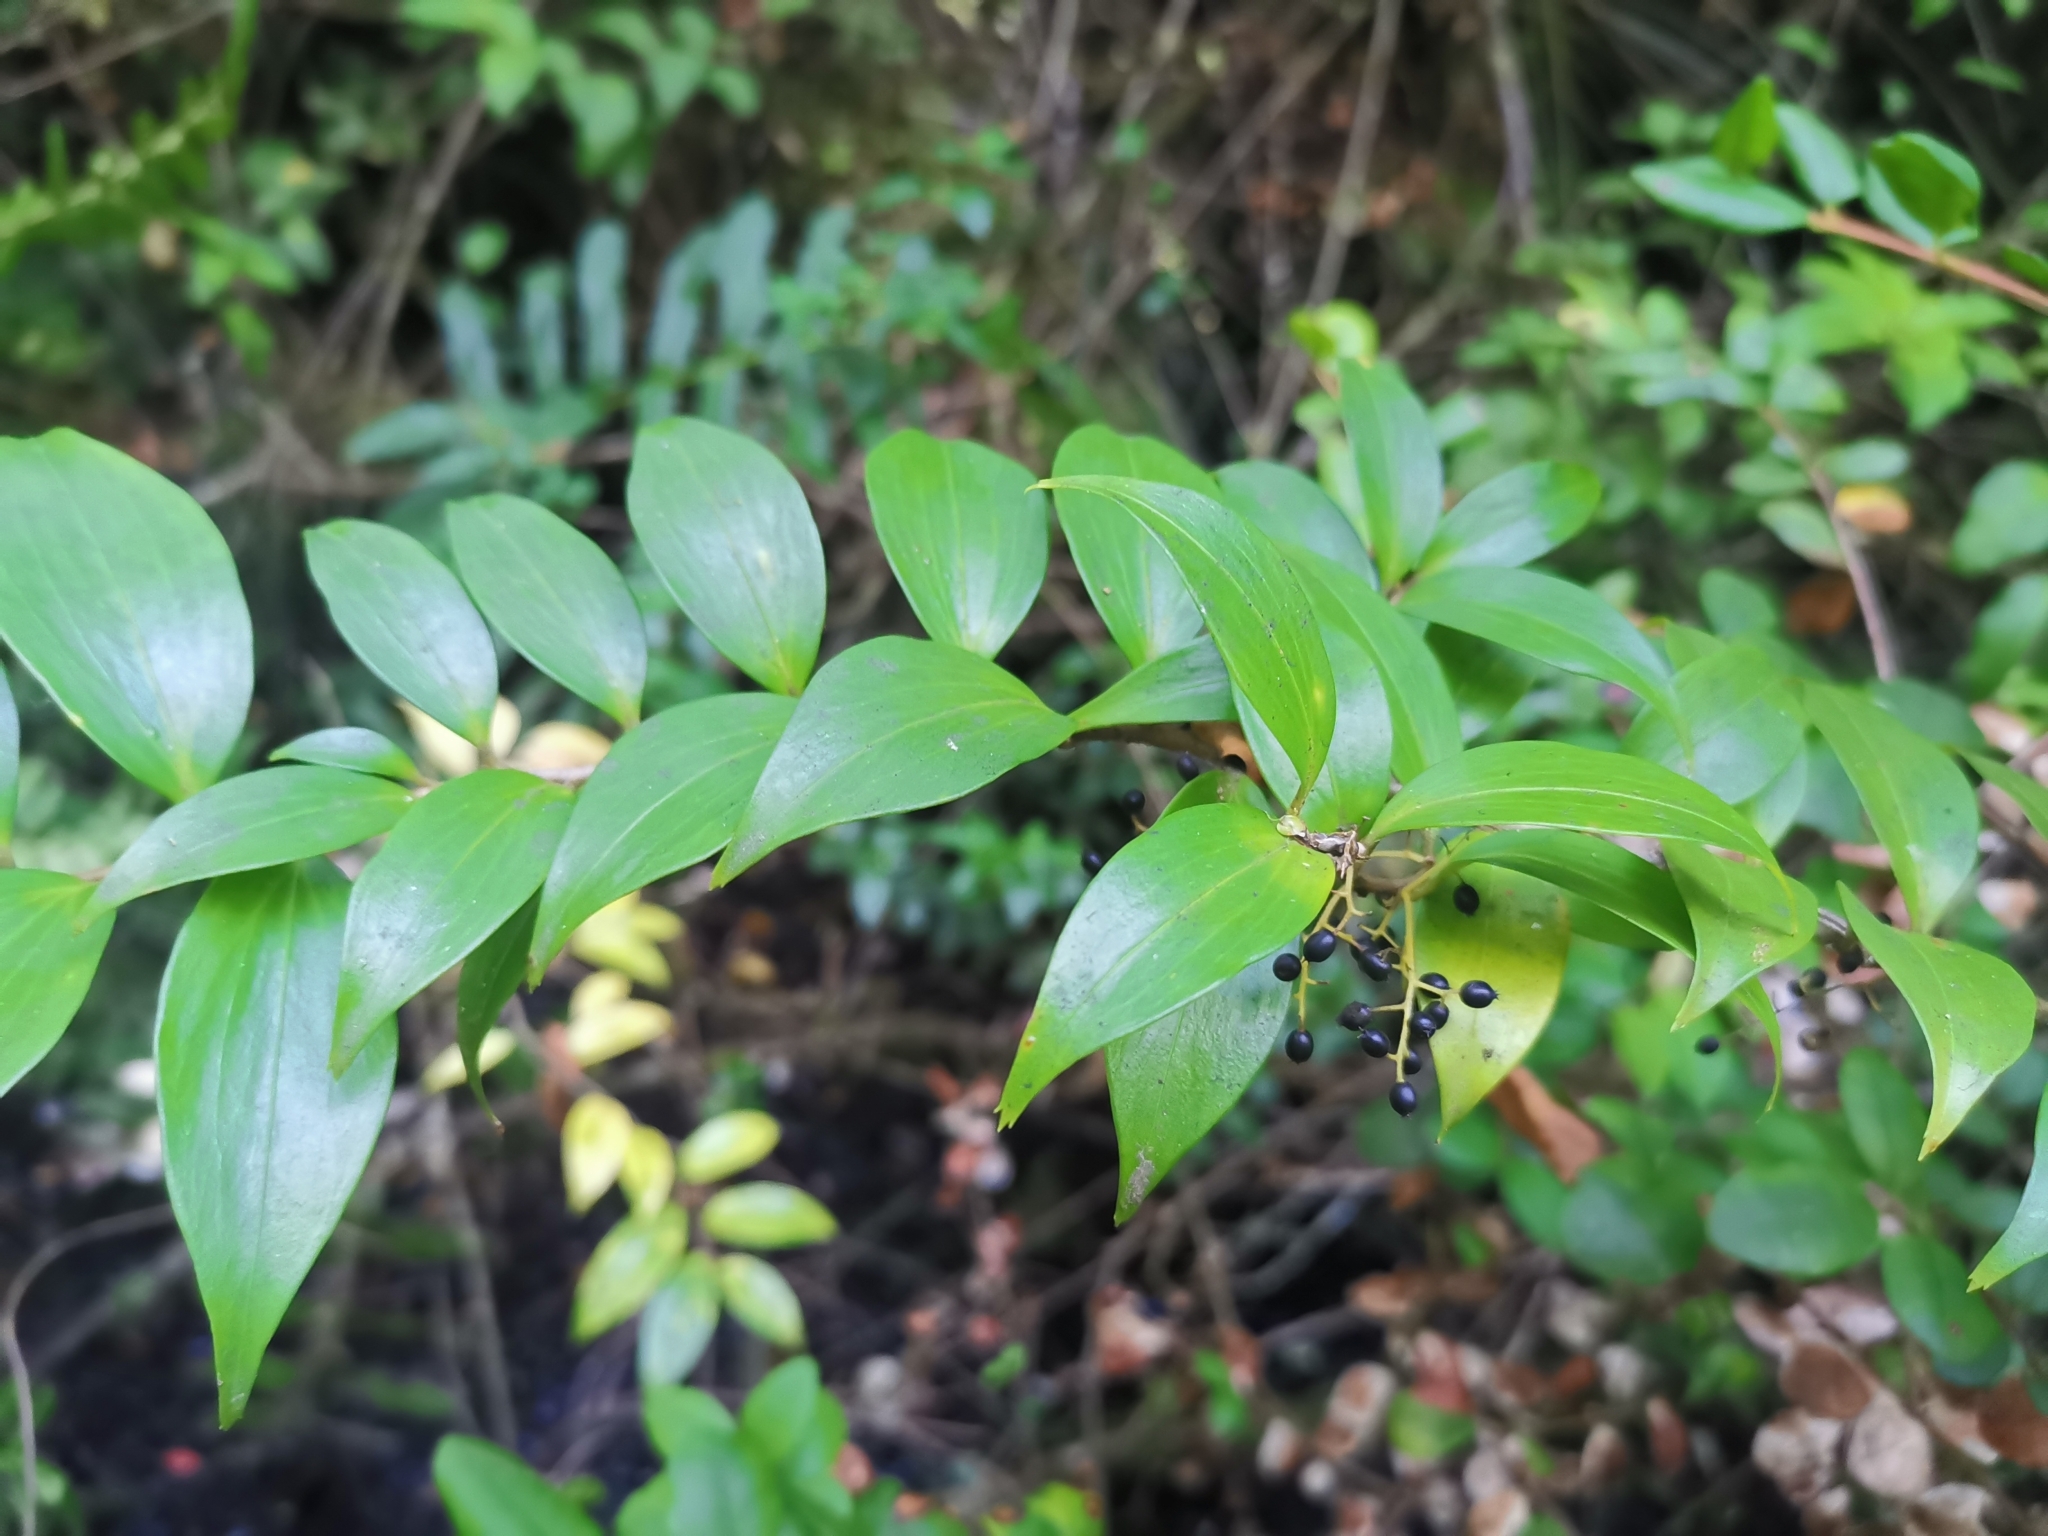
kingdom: Plantae
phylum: Tracheophyta
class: Magnoliopsida
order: Apiales
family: Griseliniaceae
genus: Griselinia
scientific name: Griselinia ruscifolia
